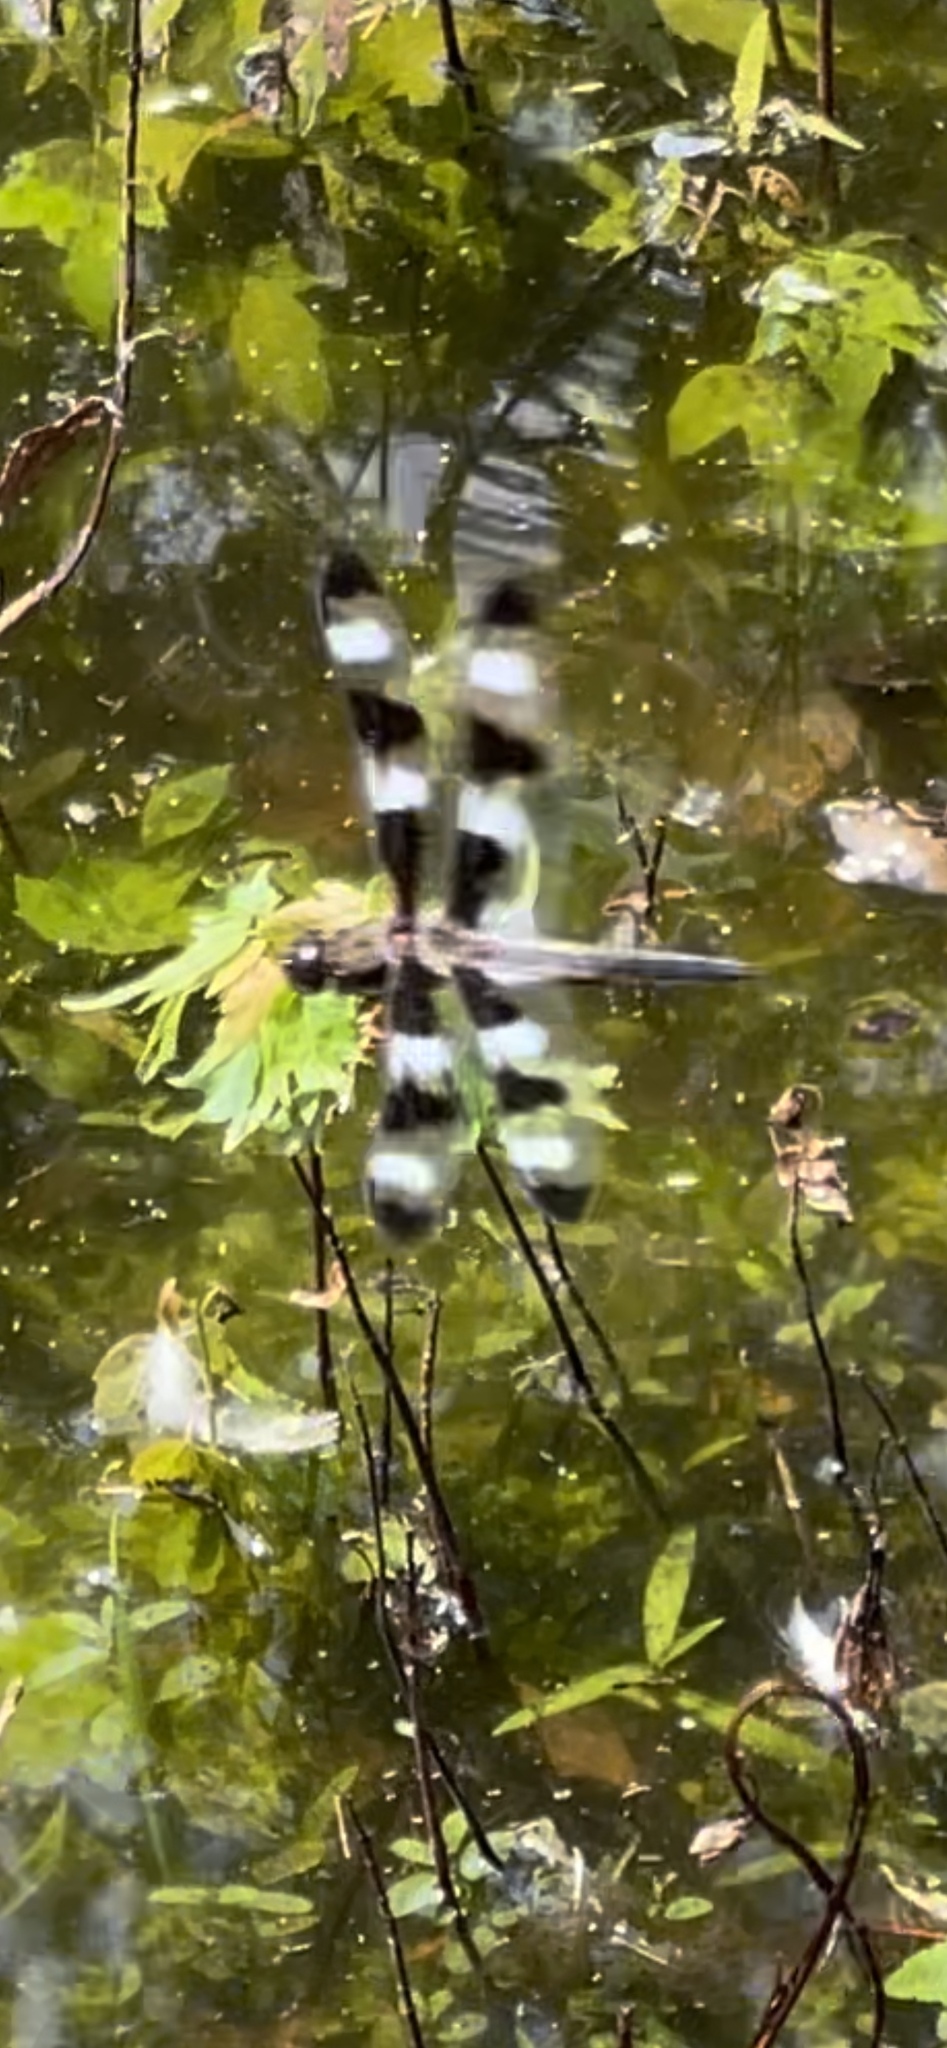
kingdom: Animalia
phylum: Arthropoda
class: Insecta
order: Odonata
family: Libellulidae
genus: Libellula
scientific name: Libellula pulchella
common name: Twelve-spotted skimmer
